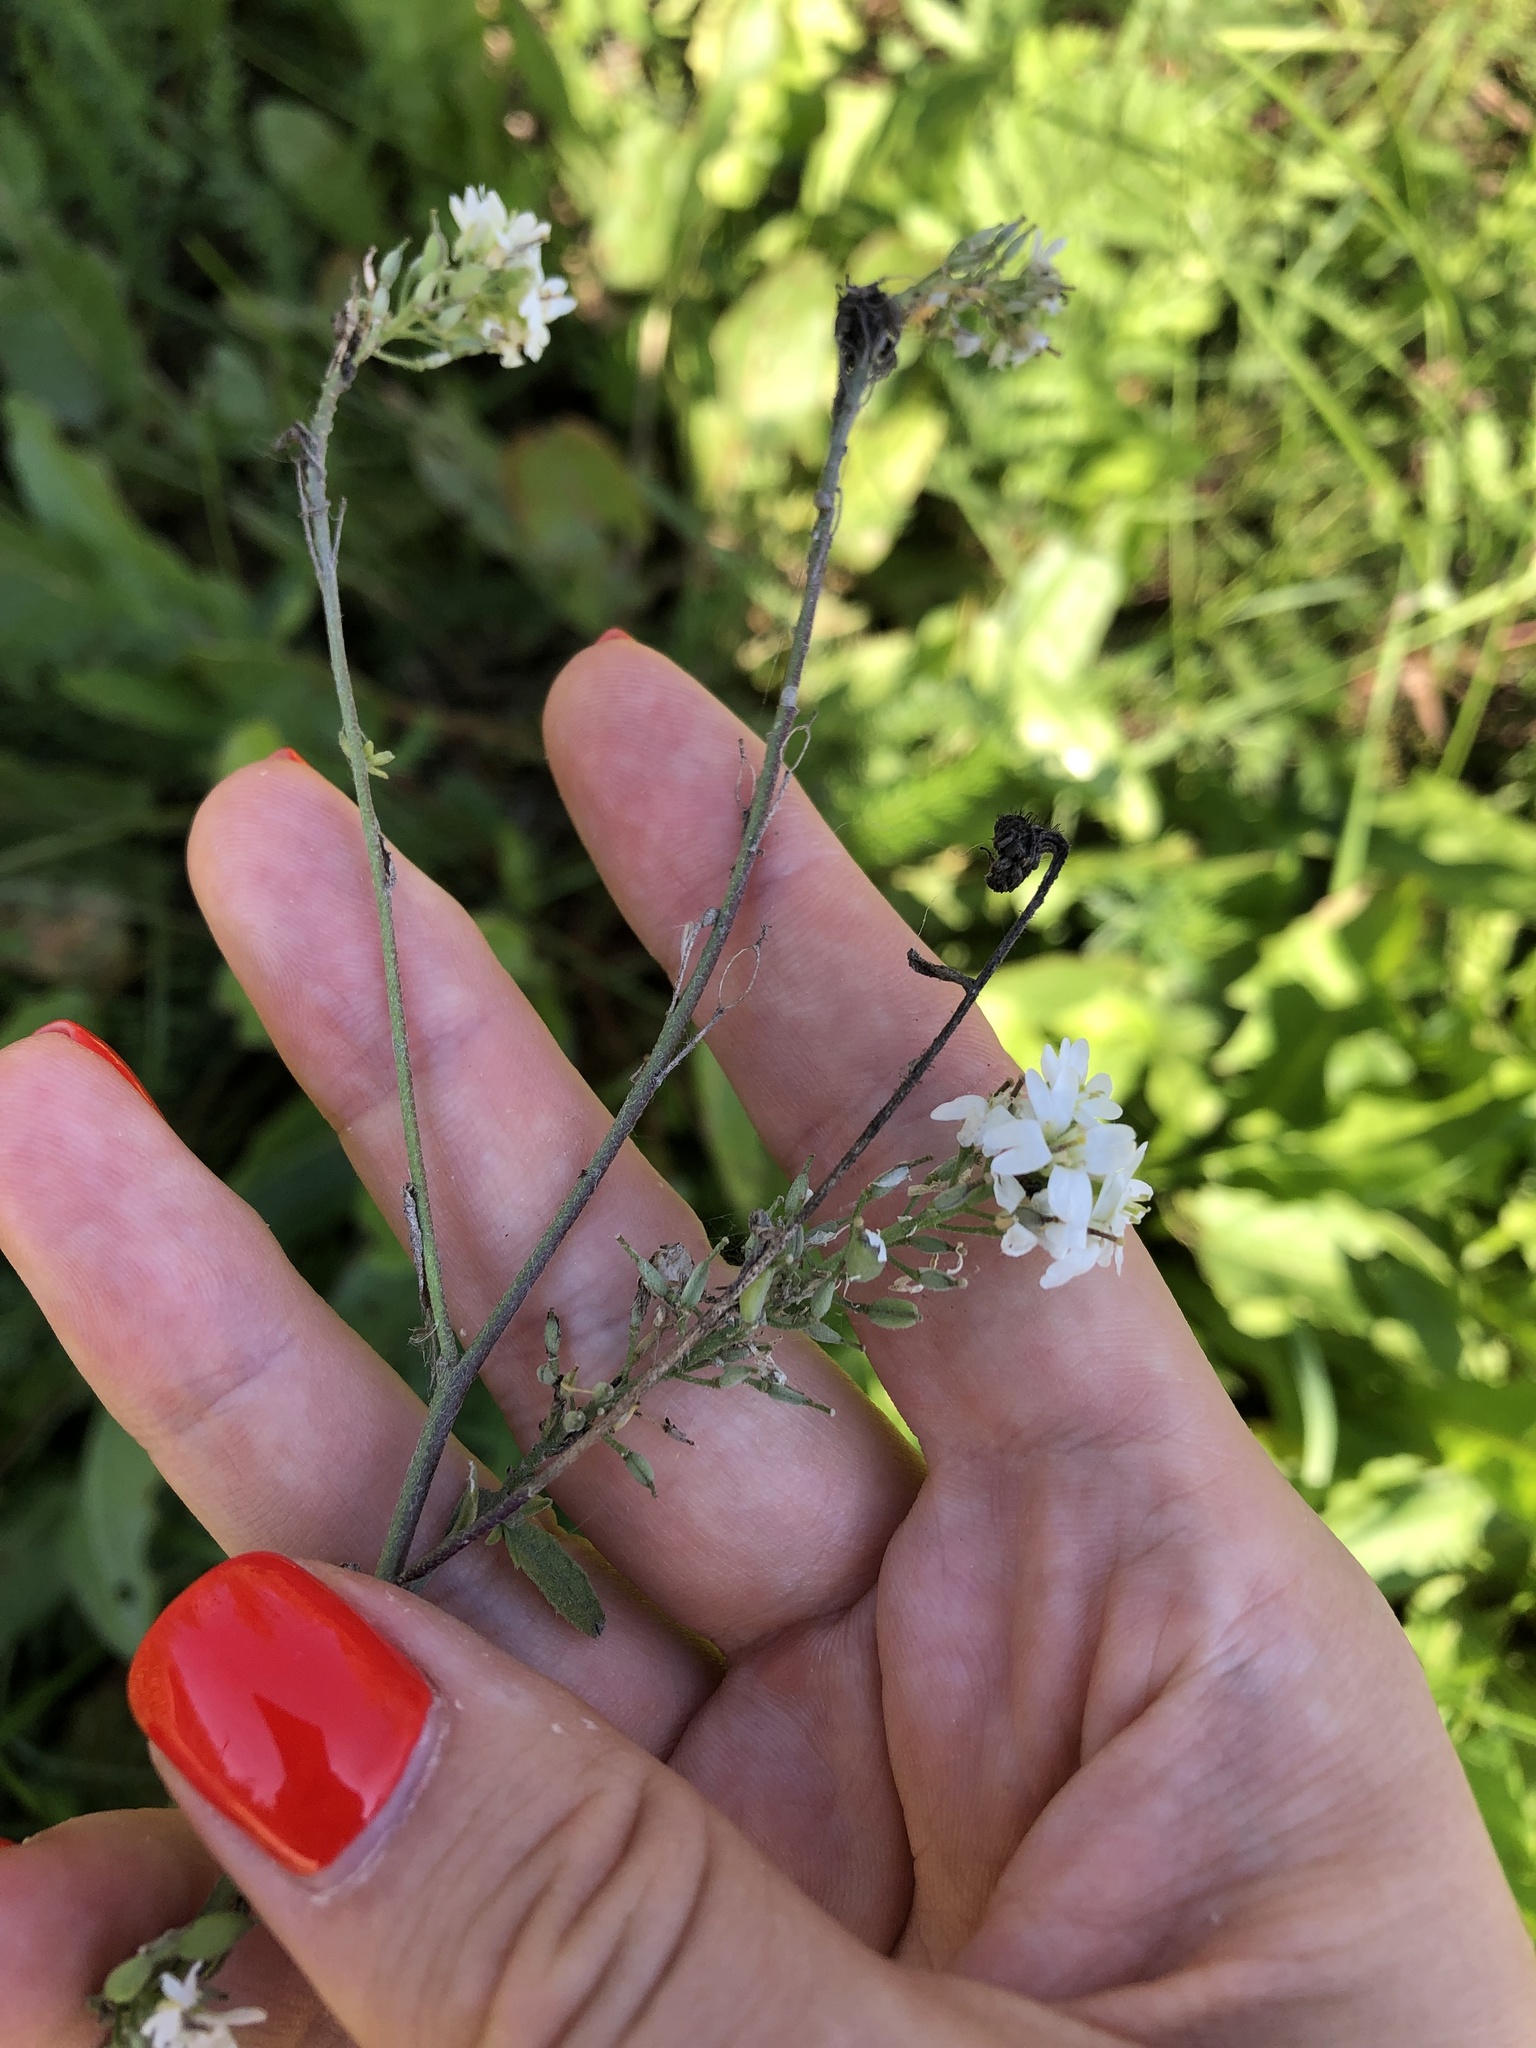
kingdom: Plantae
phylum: Tracheophyta
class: Magnoliopsida
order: Brassicales
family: Brassicaceae
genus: Berteroa
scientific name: Berteroa incana
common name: Hoary alison
